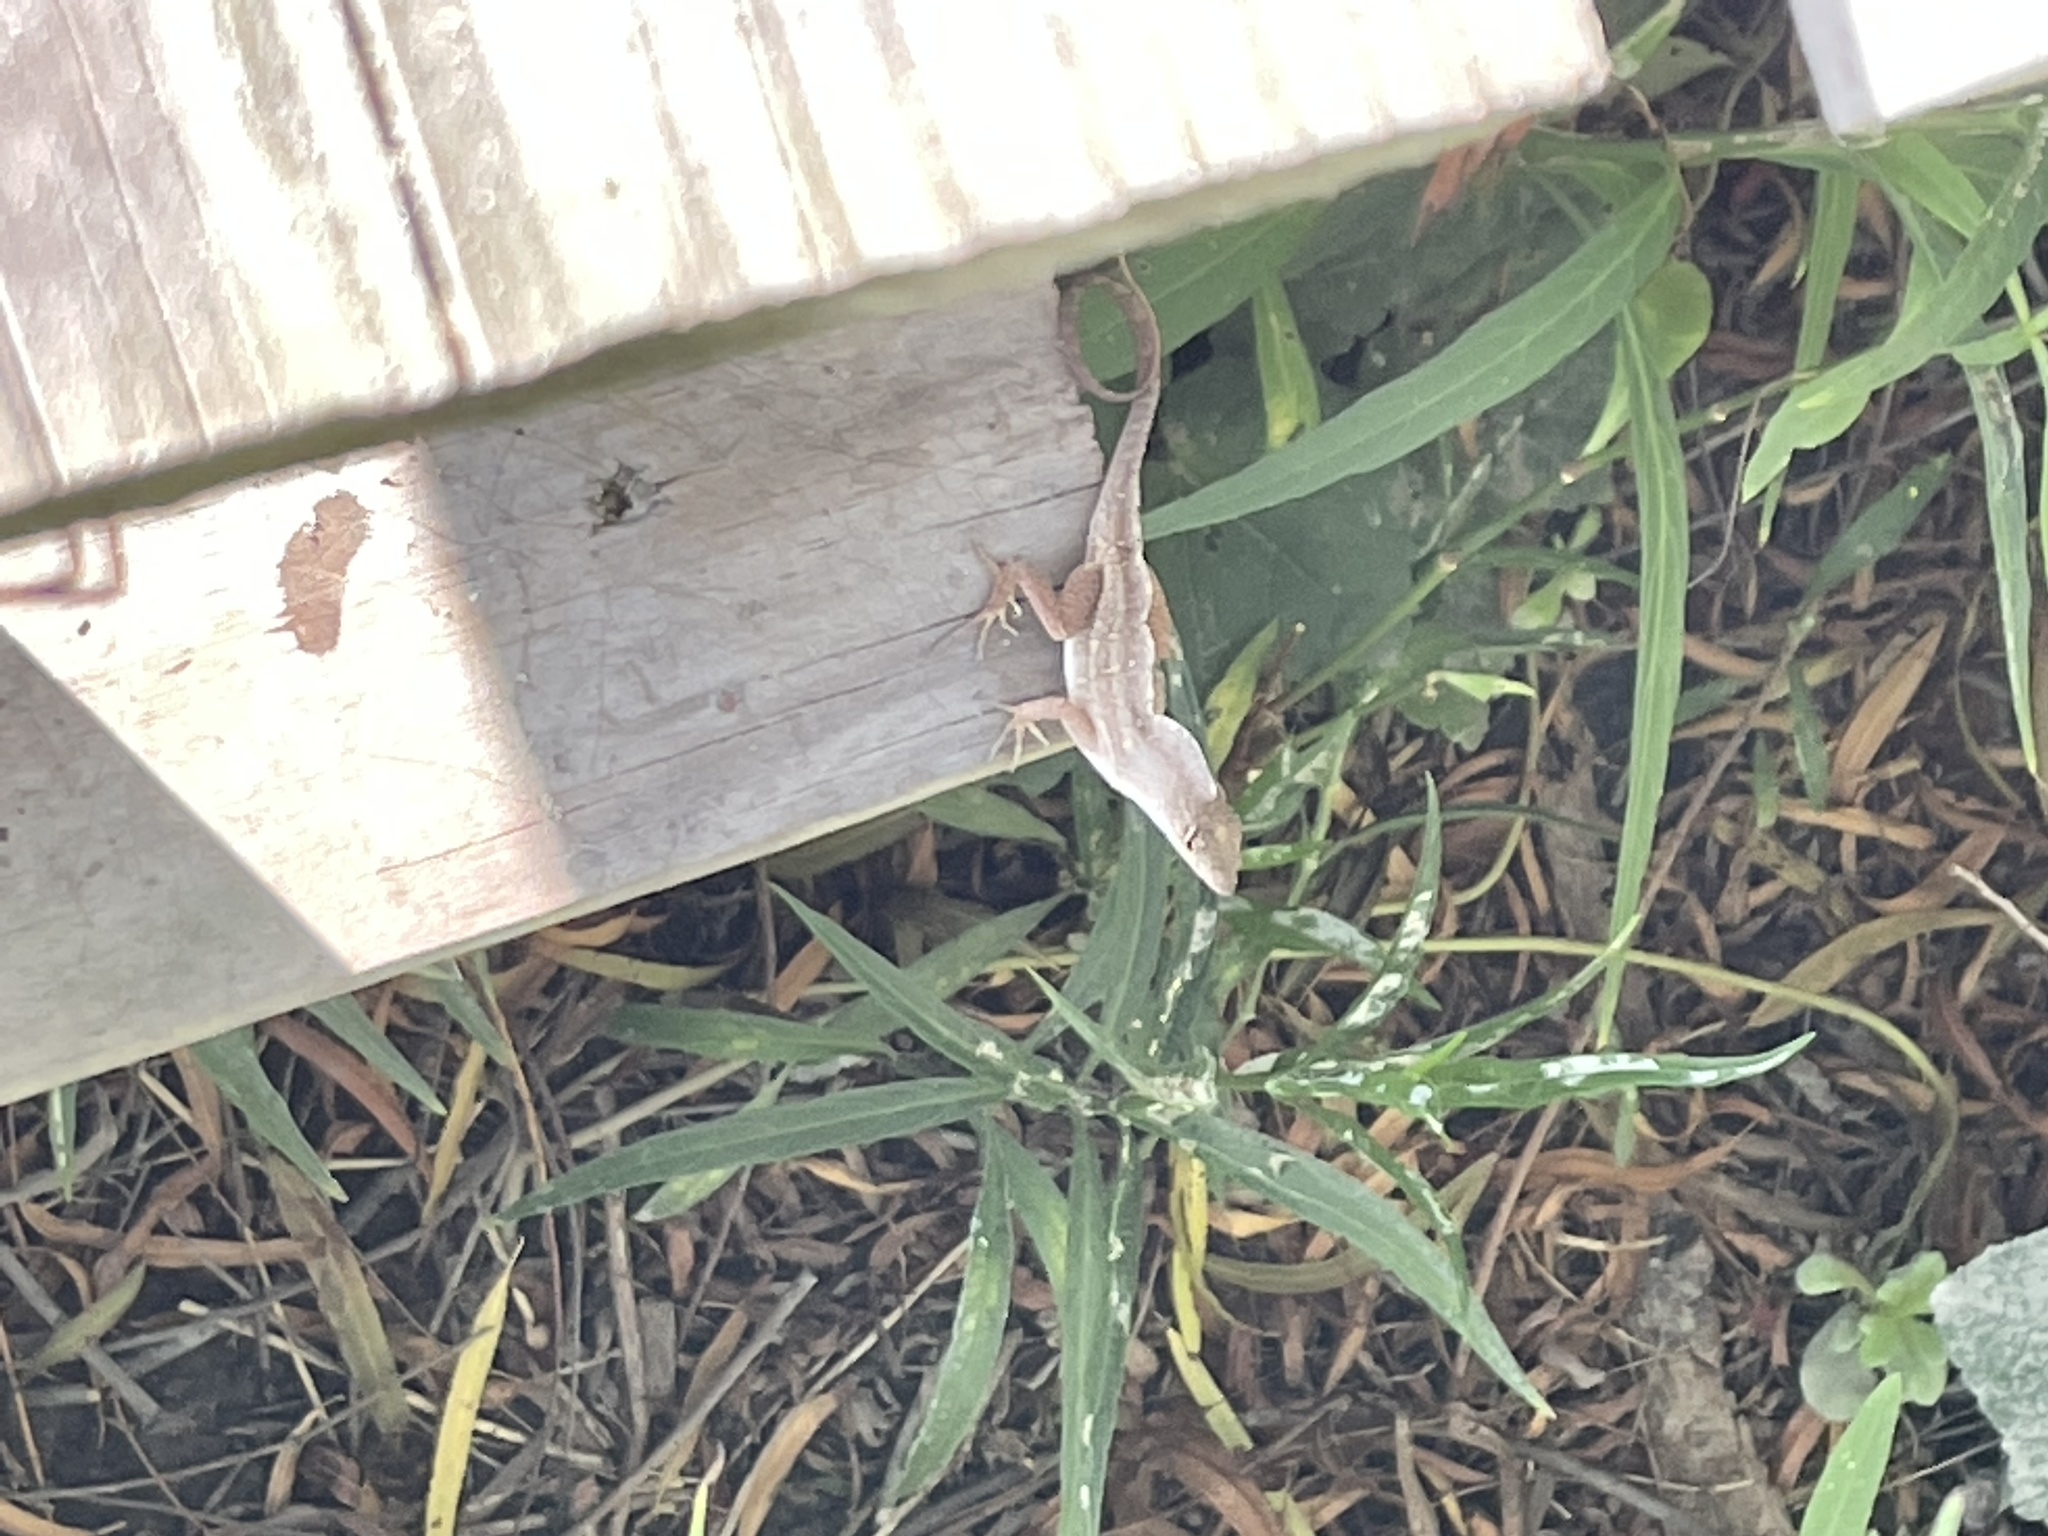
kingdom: Animalia
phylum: Chordata
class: Squamata
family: Dactyloidae
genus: Anolis
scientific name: Anolis sagrei
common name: Brown anole
